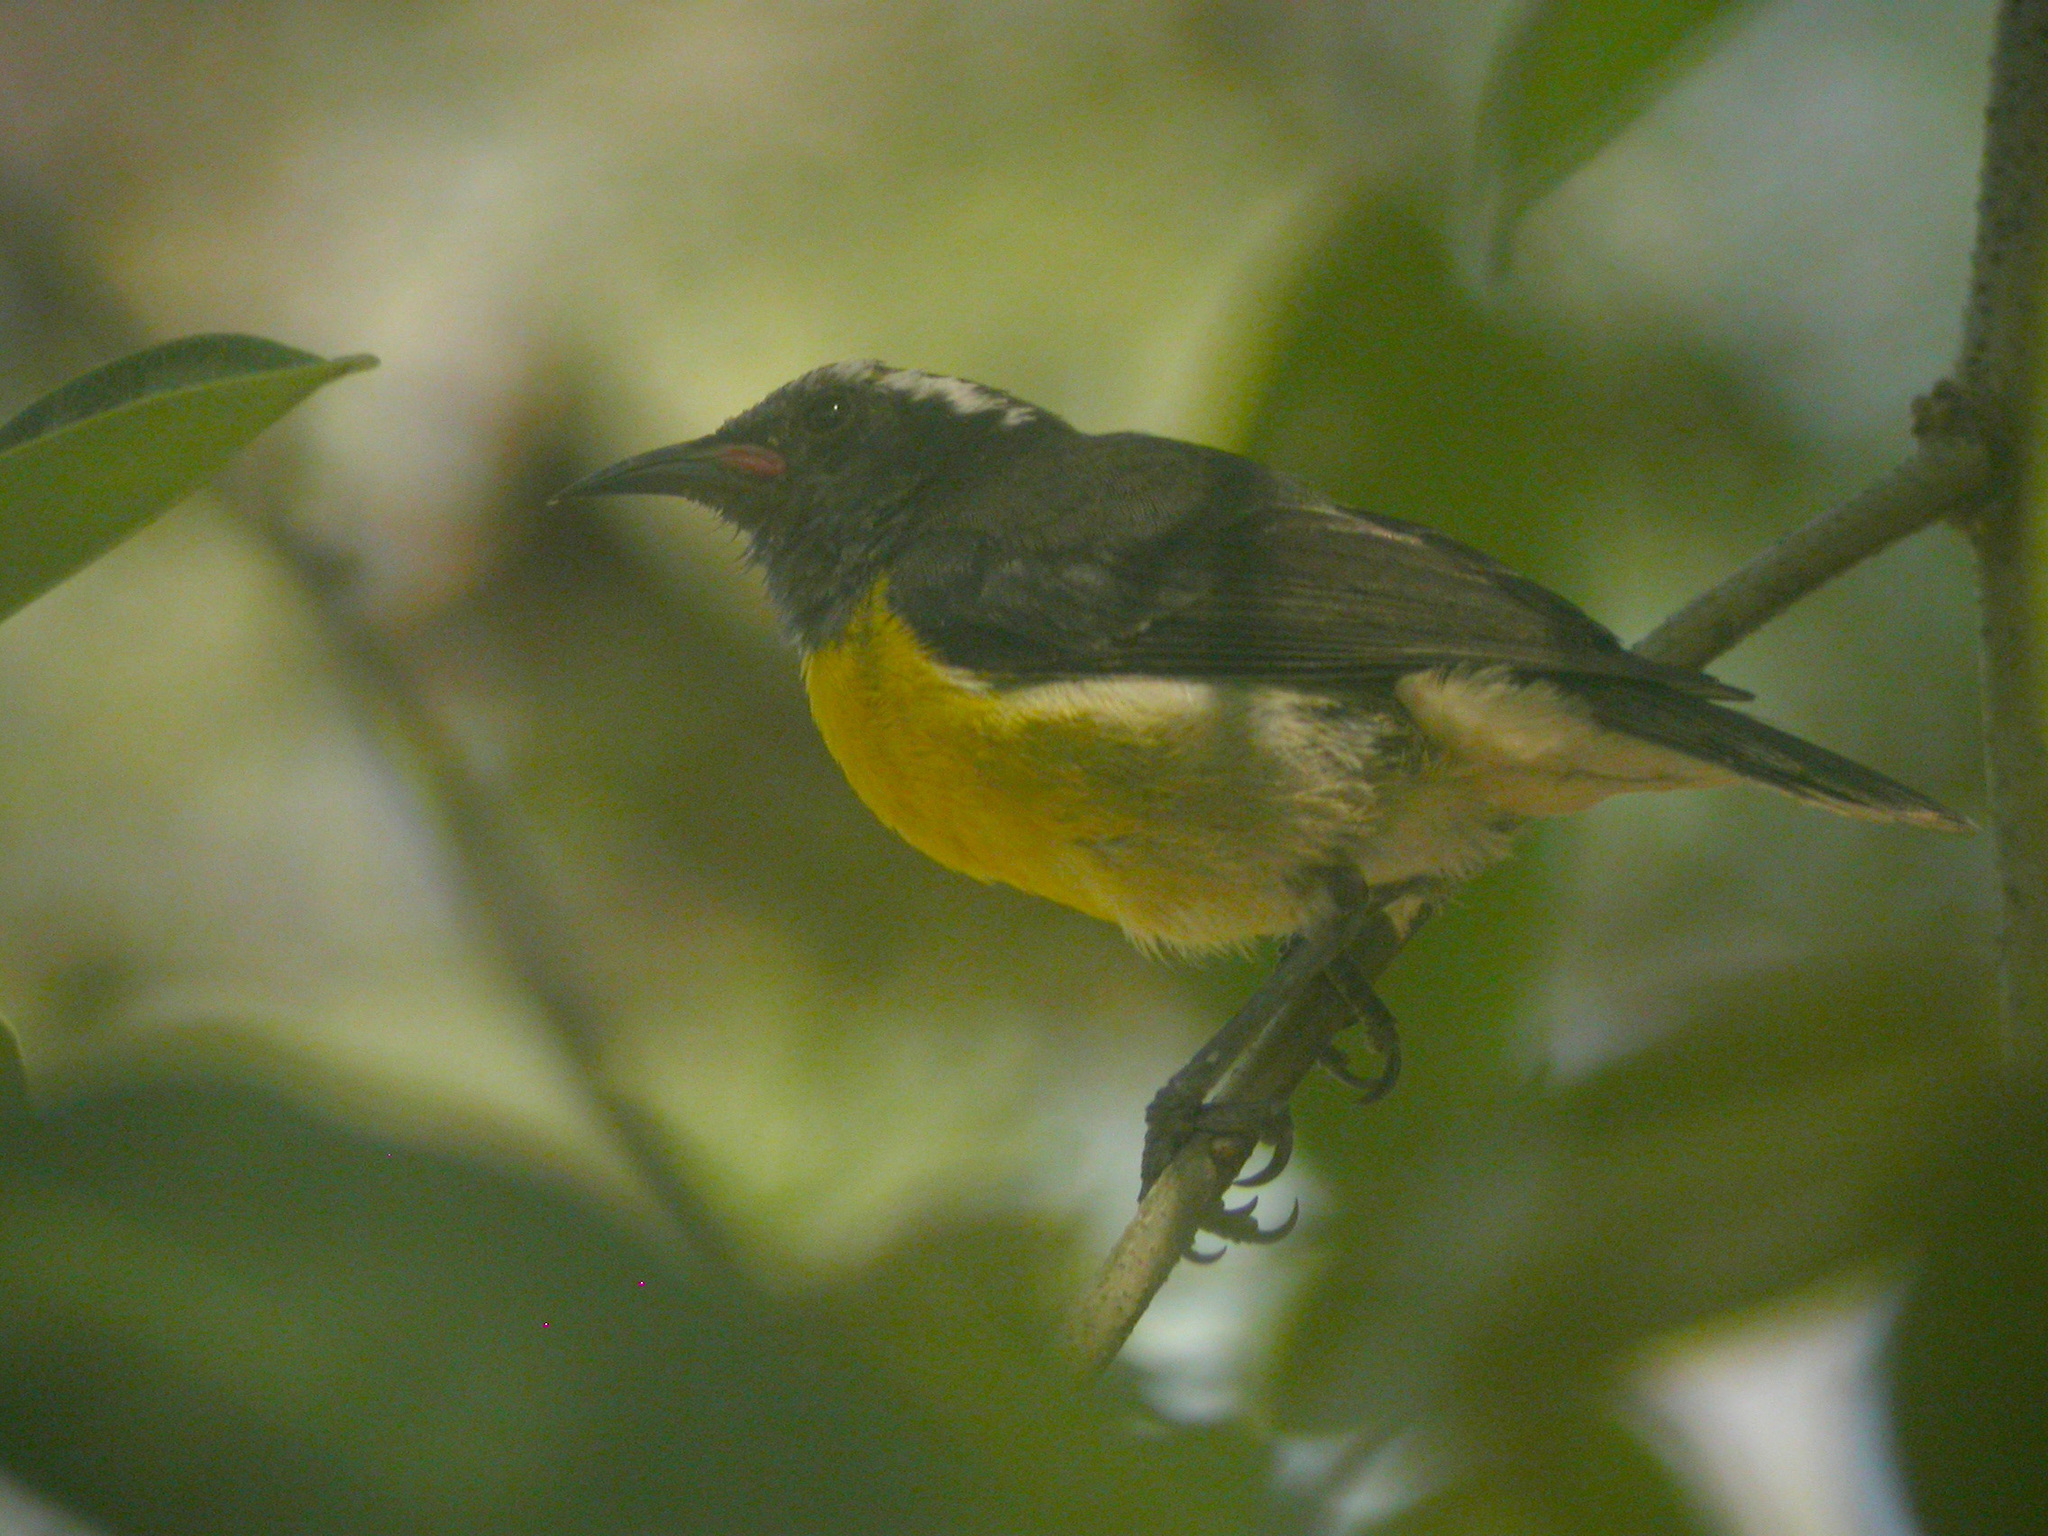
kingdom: Animalia
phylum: Chordata
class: Aves
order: Passeriformes
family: Thraupidae
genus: Coereba
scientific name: Coereba flaveola
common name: Bananaquit
